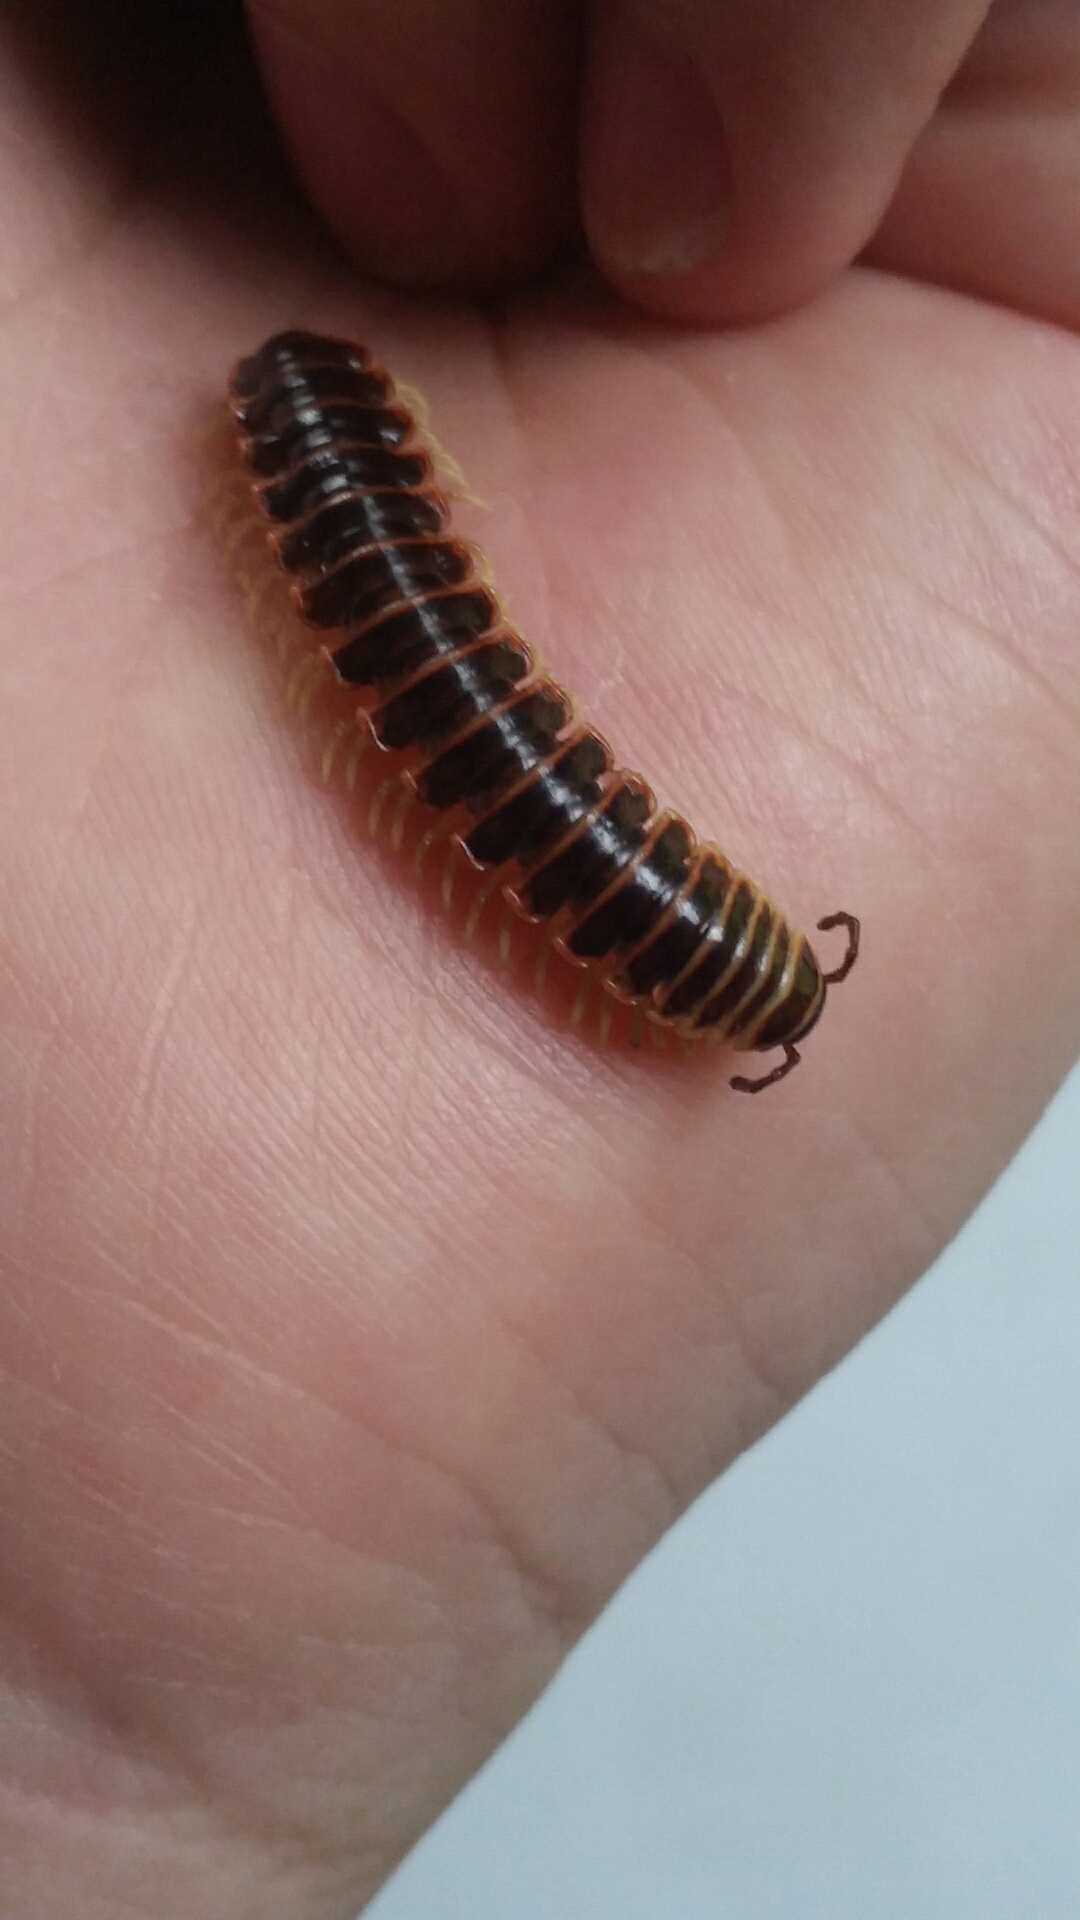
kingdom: Animalia
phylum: Arthropoda
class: Diplopoda
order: Polydesmida
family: Xystodesmidae
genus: Pleuroloma
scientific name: Pleuroloma cala
